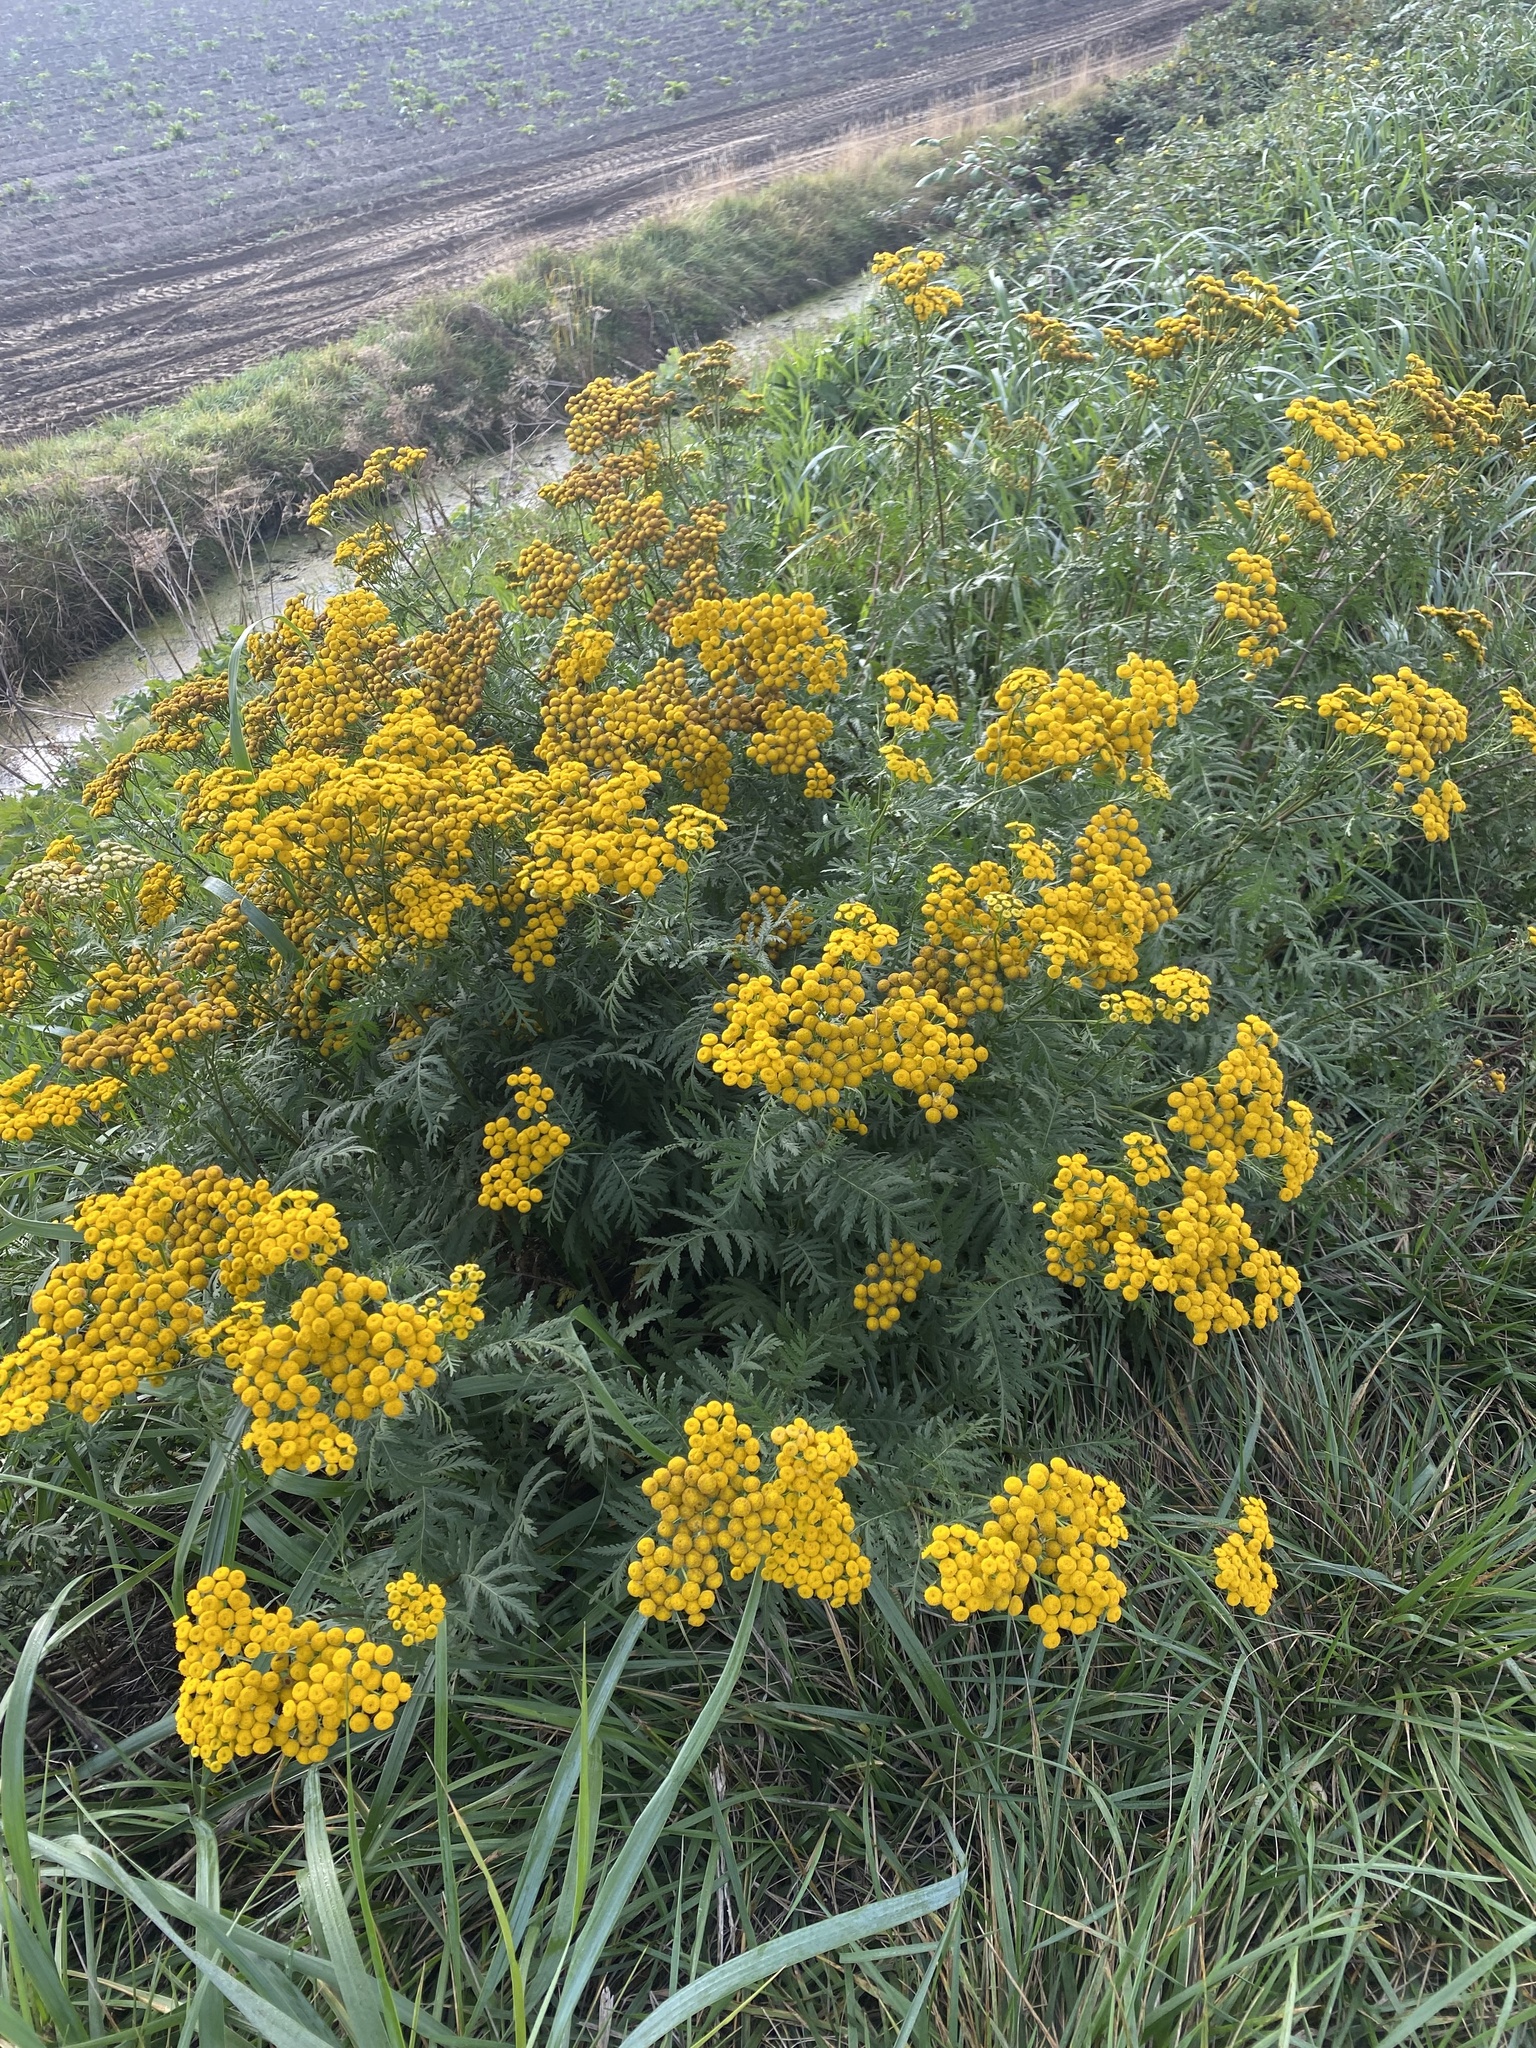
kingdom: Plantae
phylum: Tracheophyta
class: Magnoliopsida
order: Asterales
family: Asteraceae
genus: Tanacetum
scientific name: Tanacetum vulgare
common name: Common tansy
